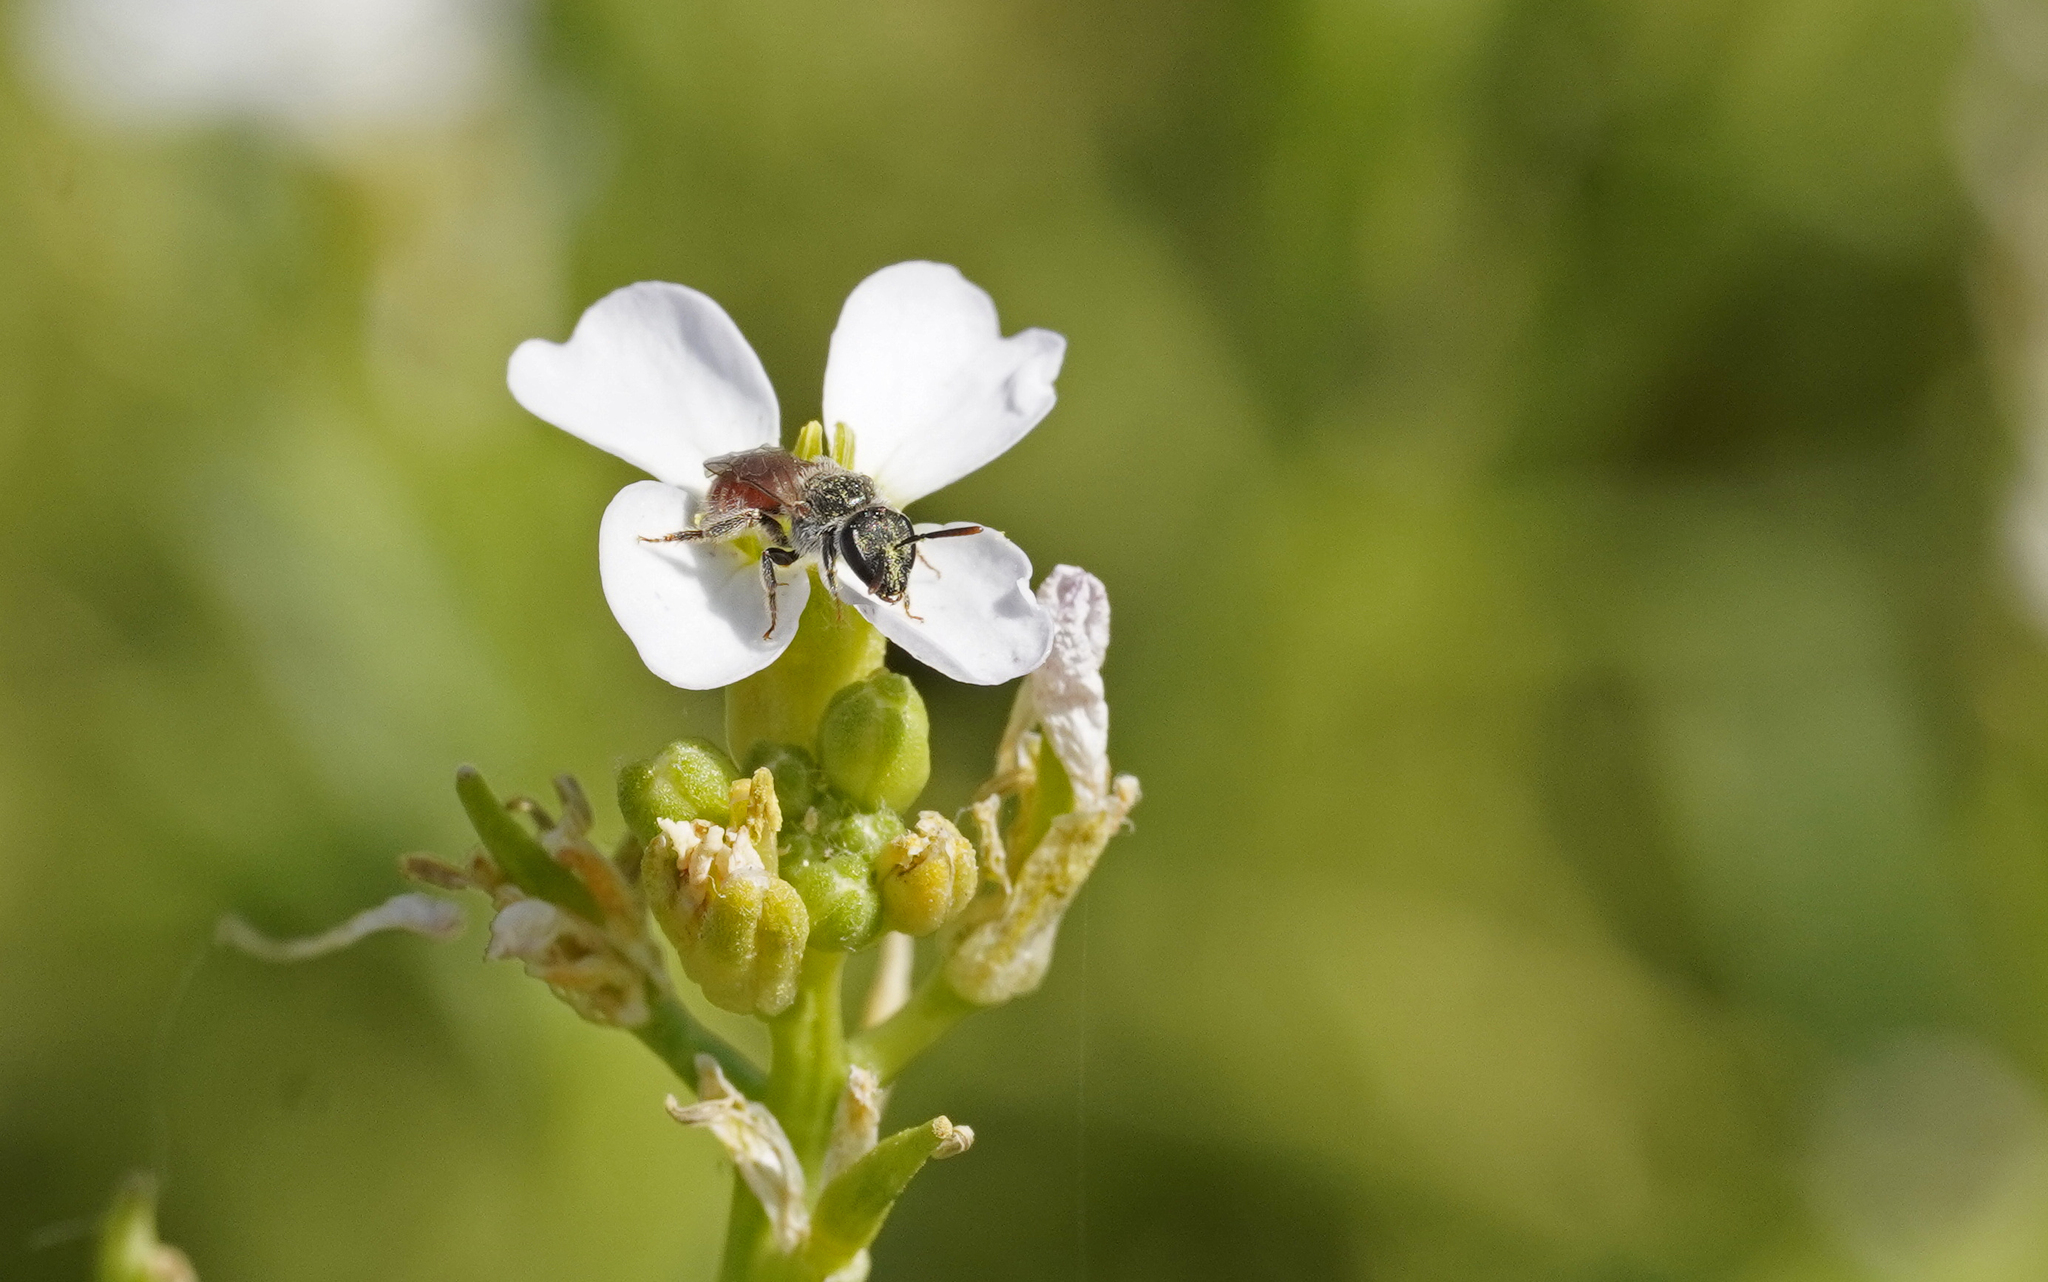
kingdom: Animalia
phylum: Arthropoda
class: Insecta
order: Hymenoptera
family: Halictidae
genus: Lasioglossum
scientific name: Lasioglossum phoenicurum
